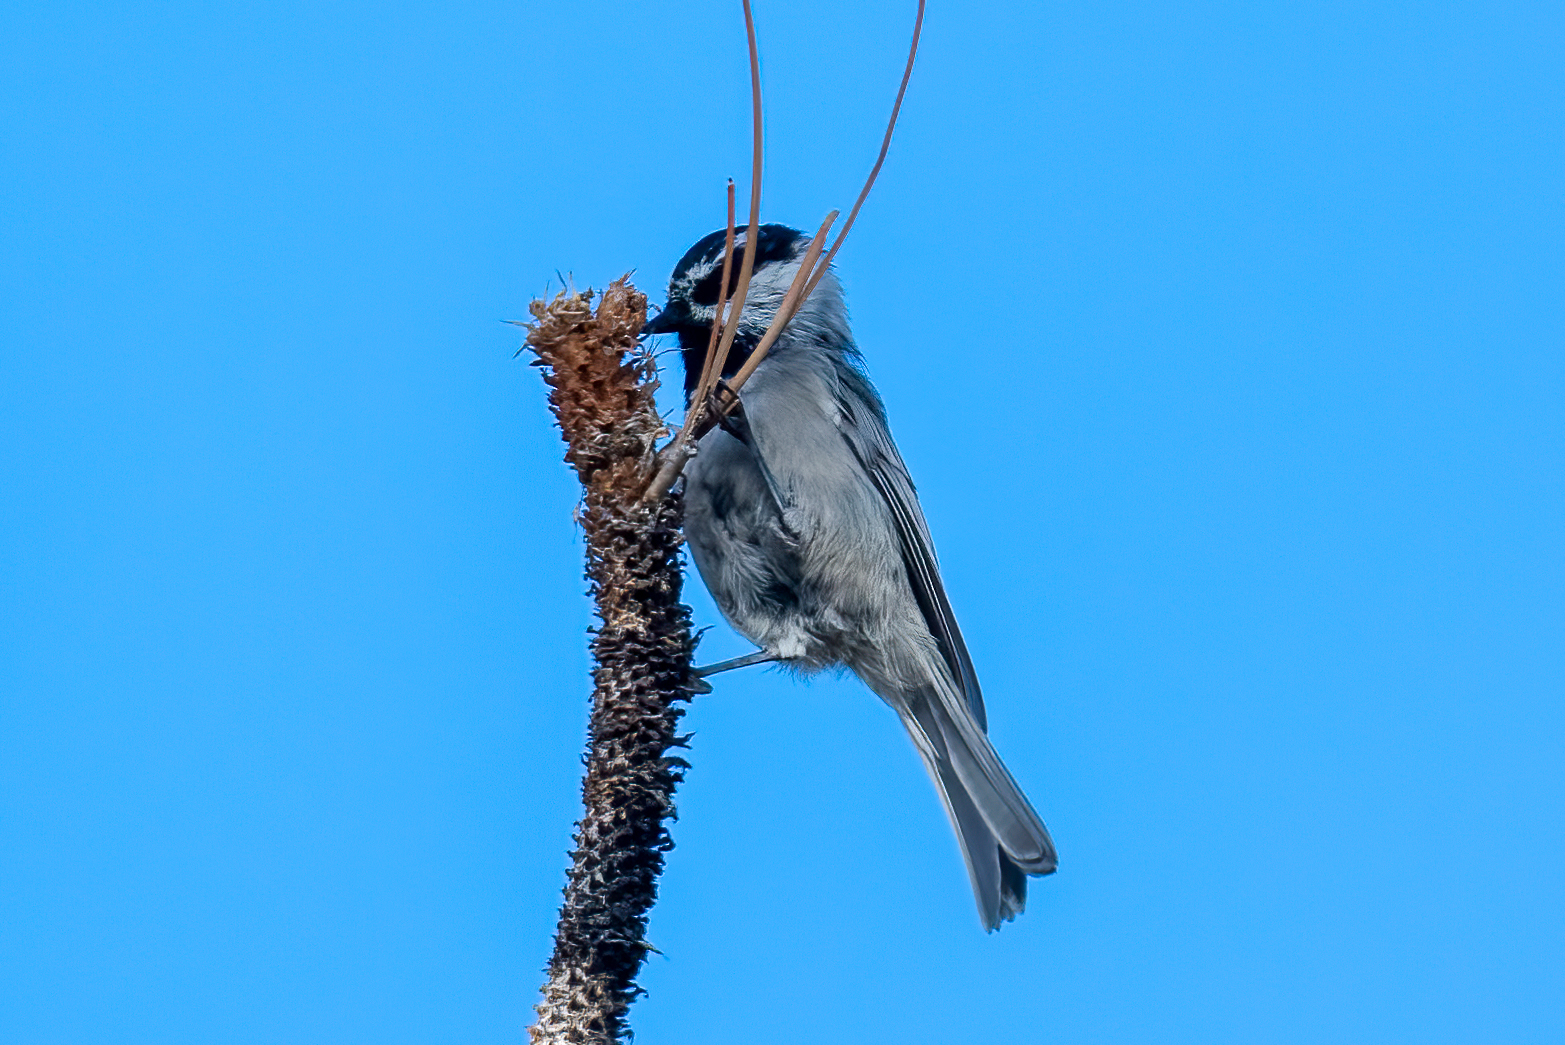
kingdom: Animalia
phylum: Chordata
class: Aves
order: Passeriformes
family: Paridae
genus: Poecile
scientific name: Poecile gambeli
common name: Mountain chickadee
